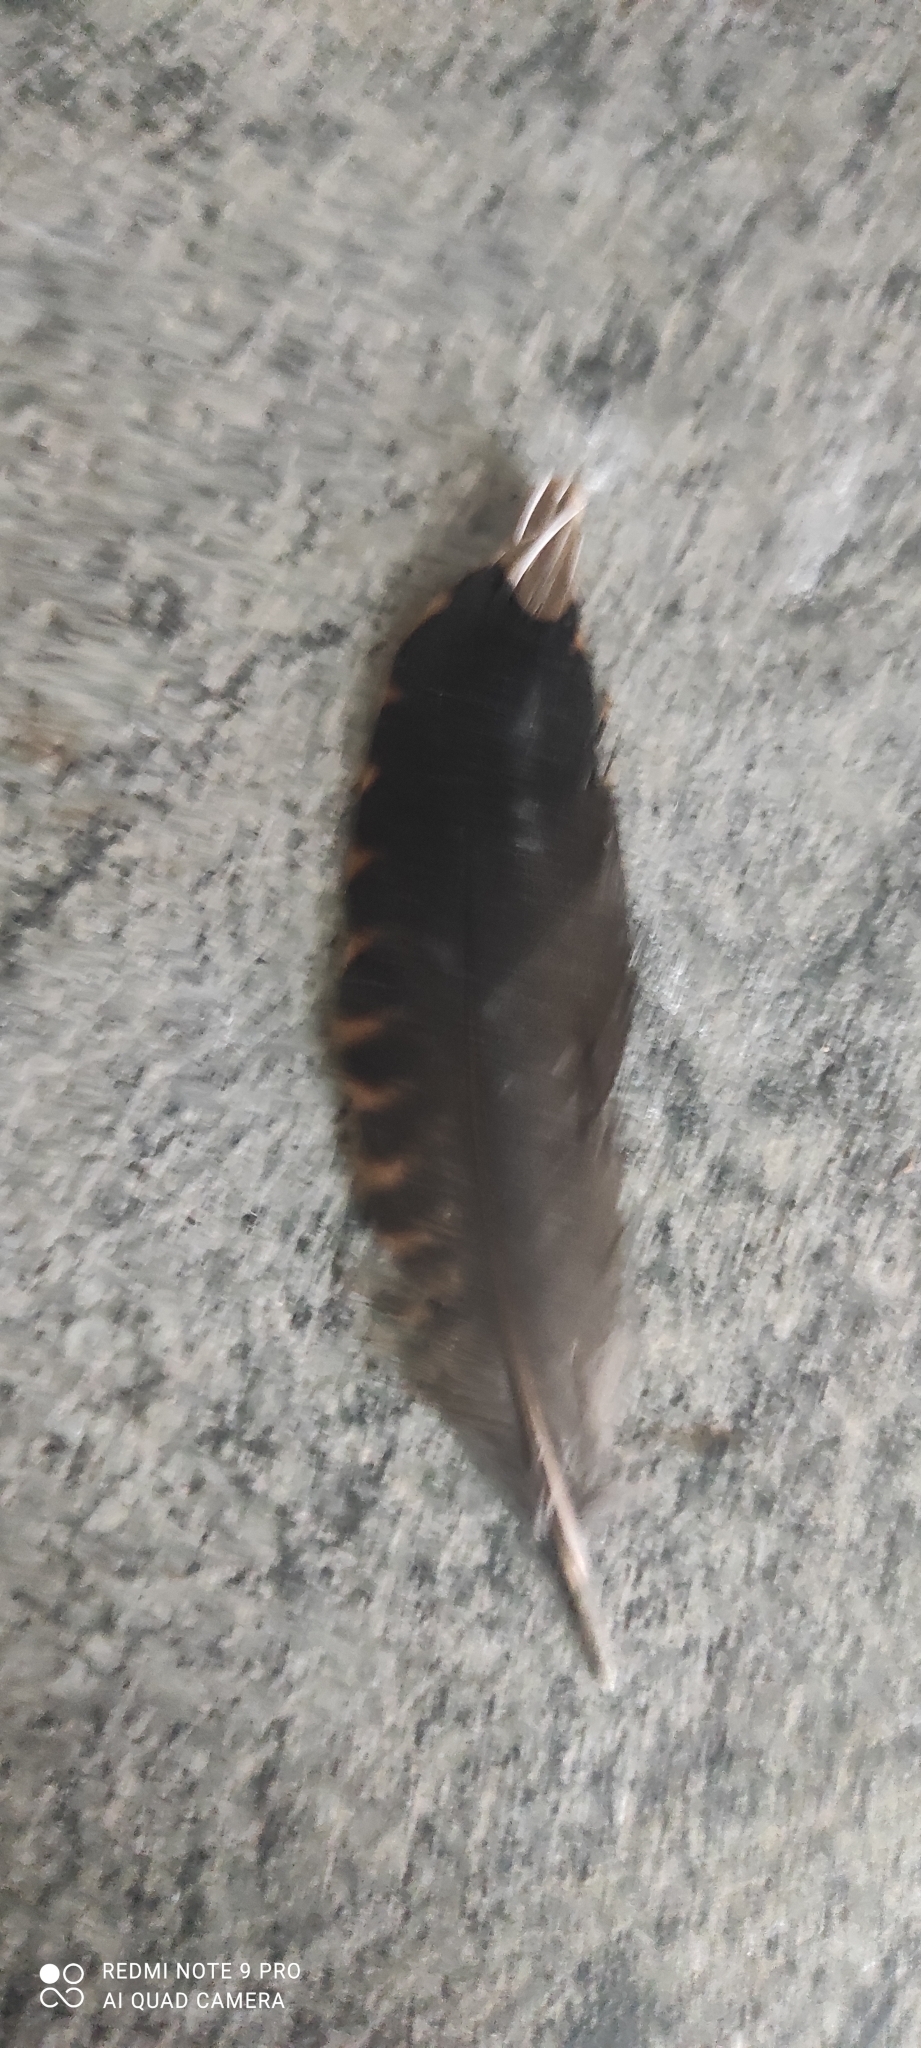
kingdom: Animalia
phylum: Chordata
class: Aves
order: Charadriiformes
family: Scolopacidae
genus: Scolopax
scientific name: Scolopax rusticola
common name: Eurasian woodcock
